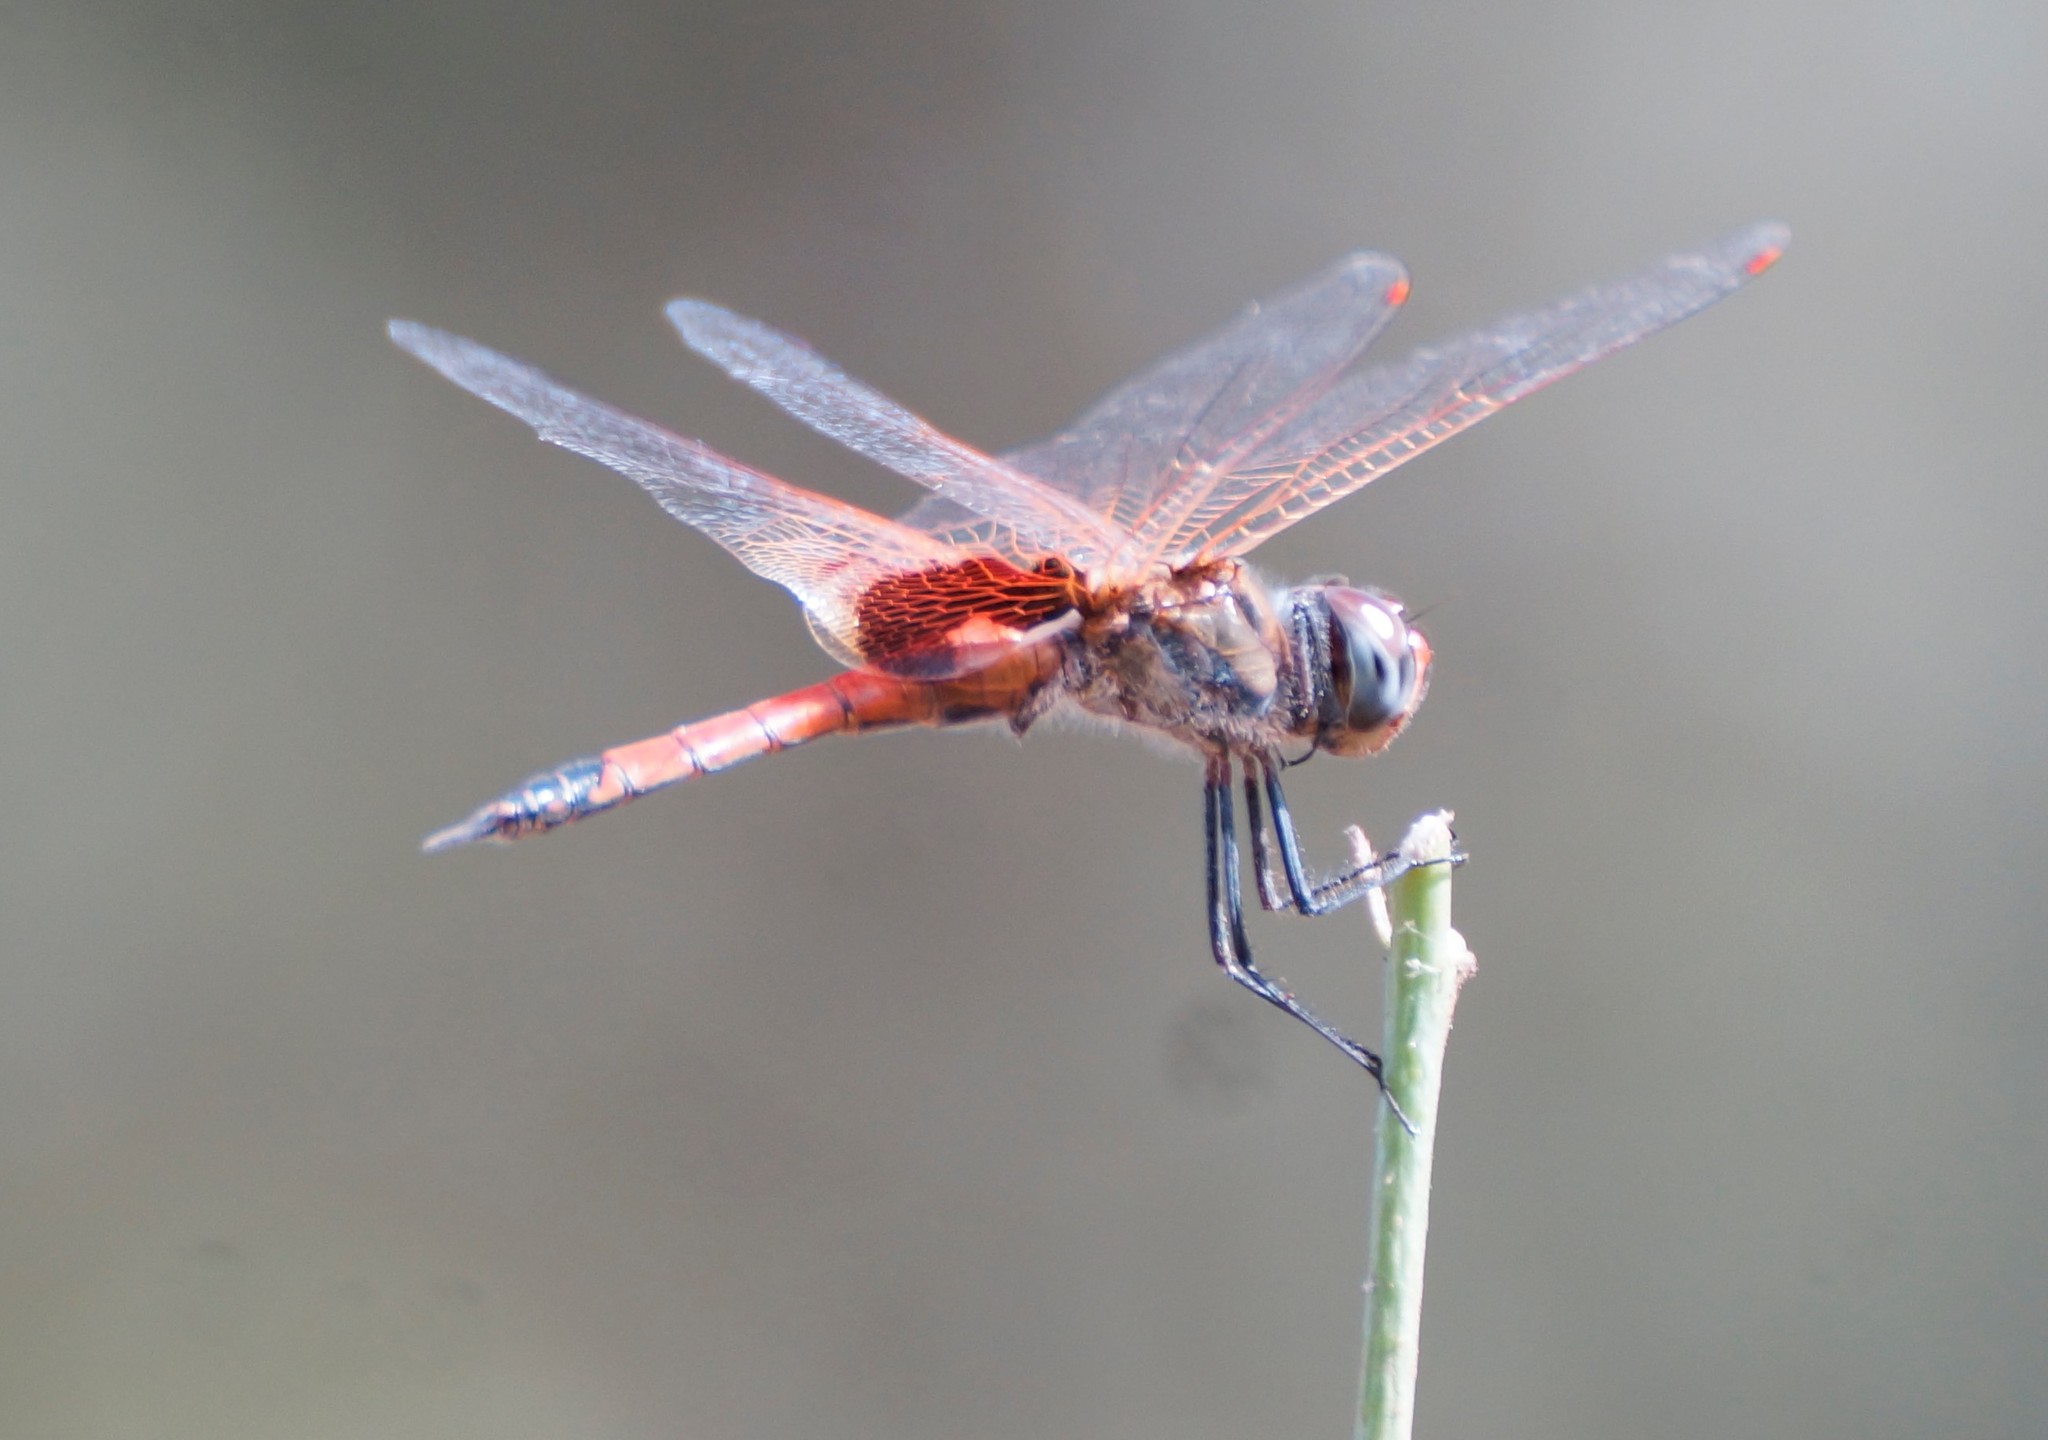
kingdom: Animalia
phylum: Arthropoda
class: Insecta
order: Odonata
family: Libellulidae
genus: Tramea
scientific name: Tramea loewii
